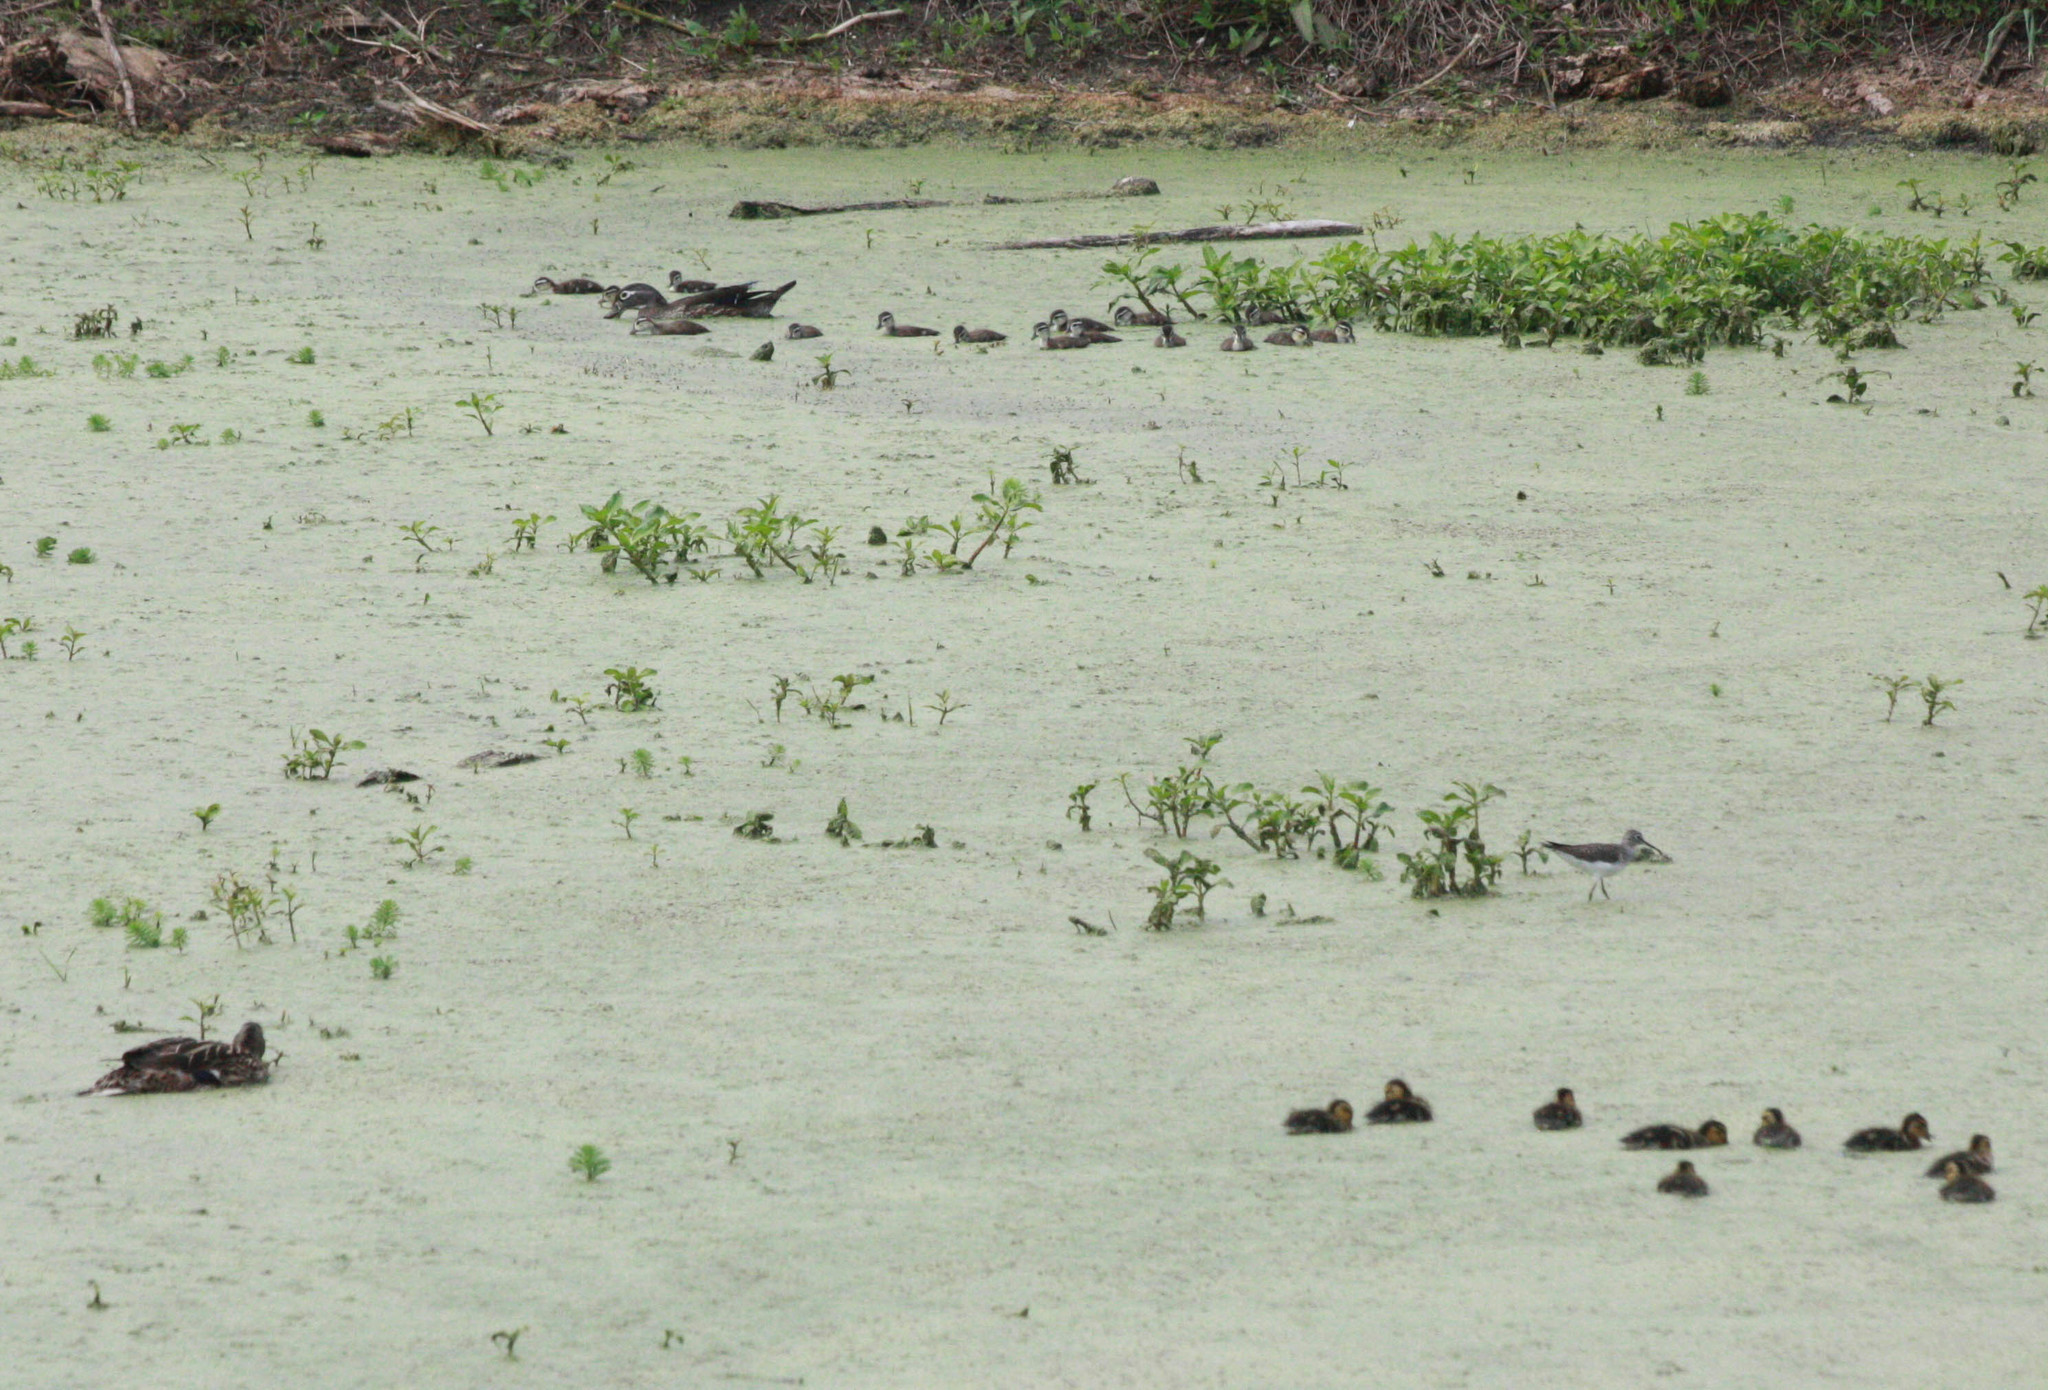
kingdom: Animalia
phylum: Chordata
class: Aves
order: Anseriformes
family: Anatidae
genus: Aix
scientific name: Aix sponsa
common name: Wood duck
